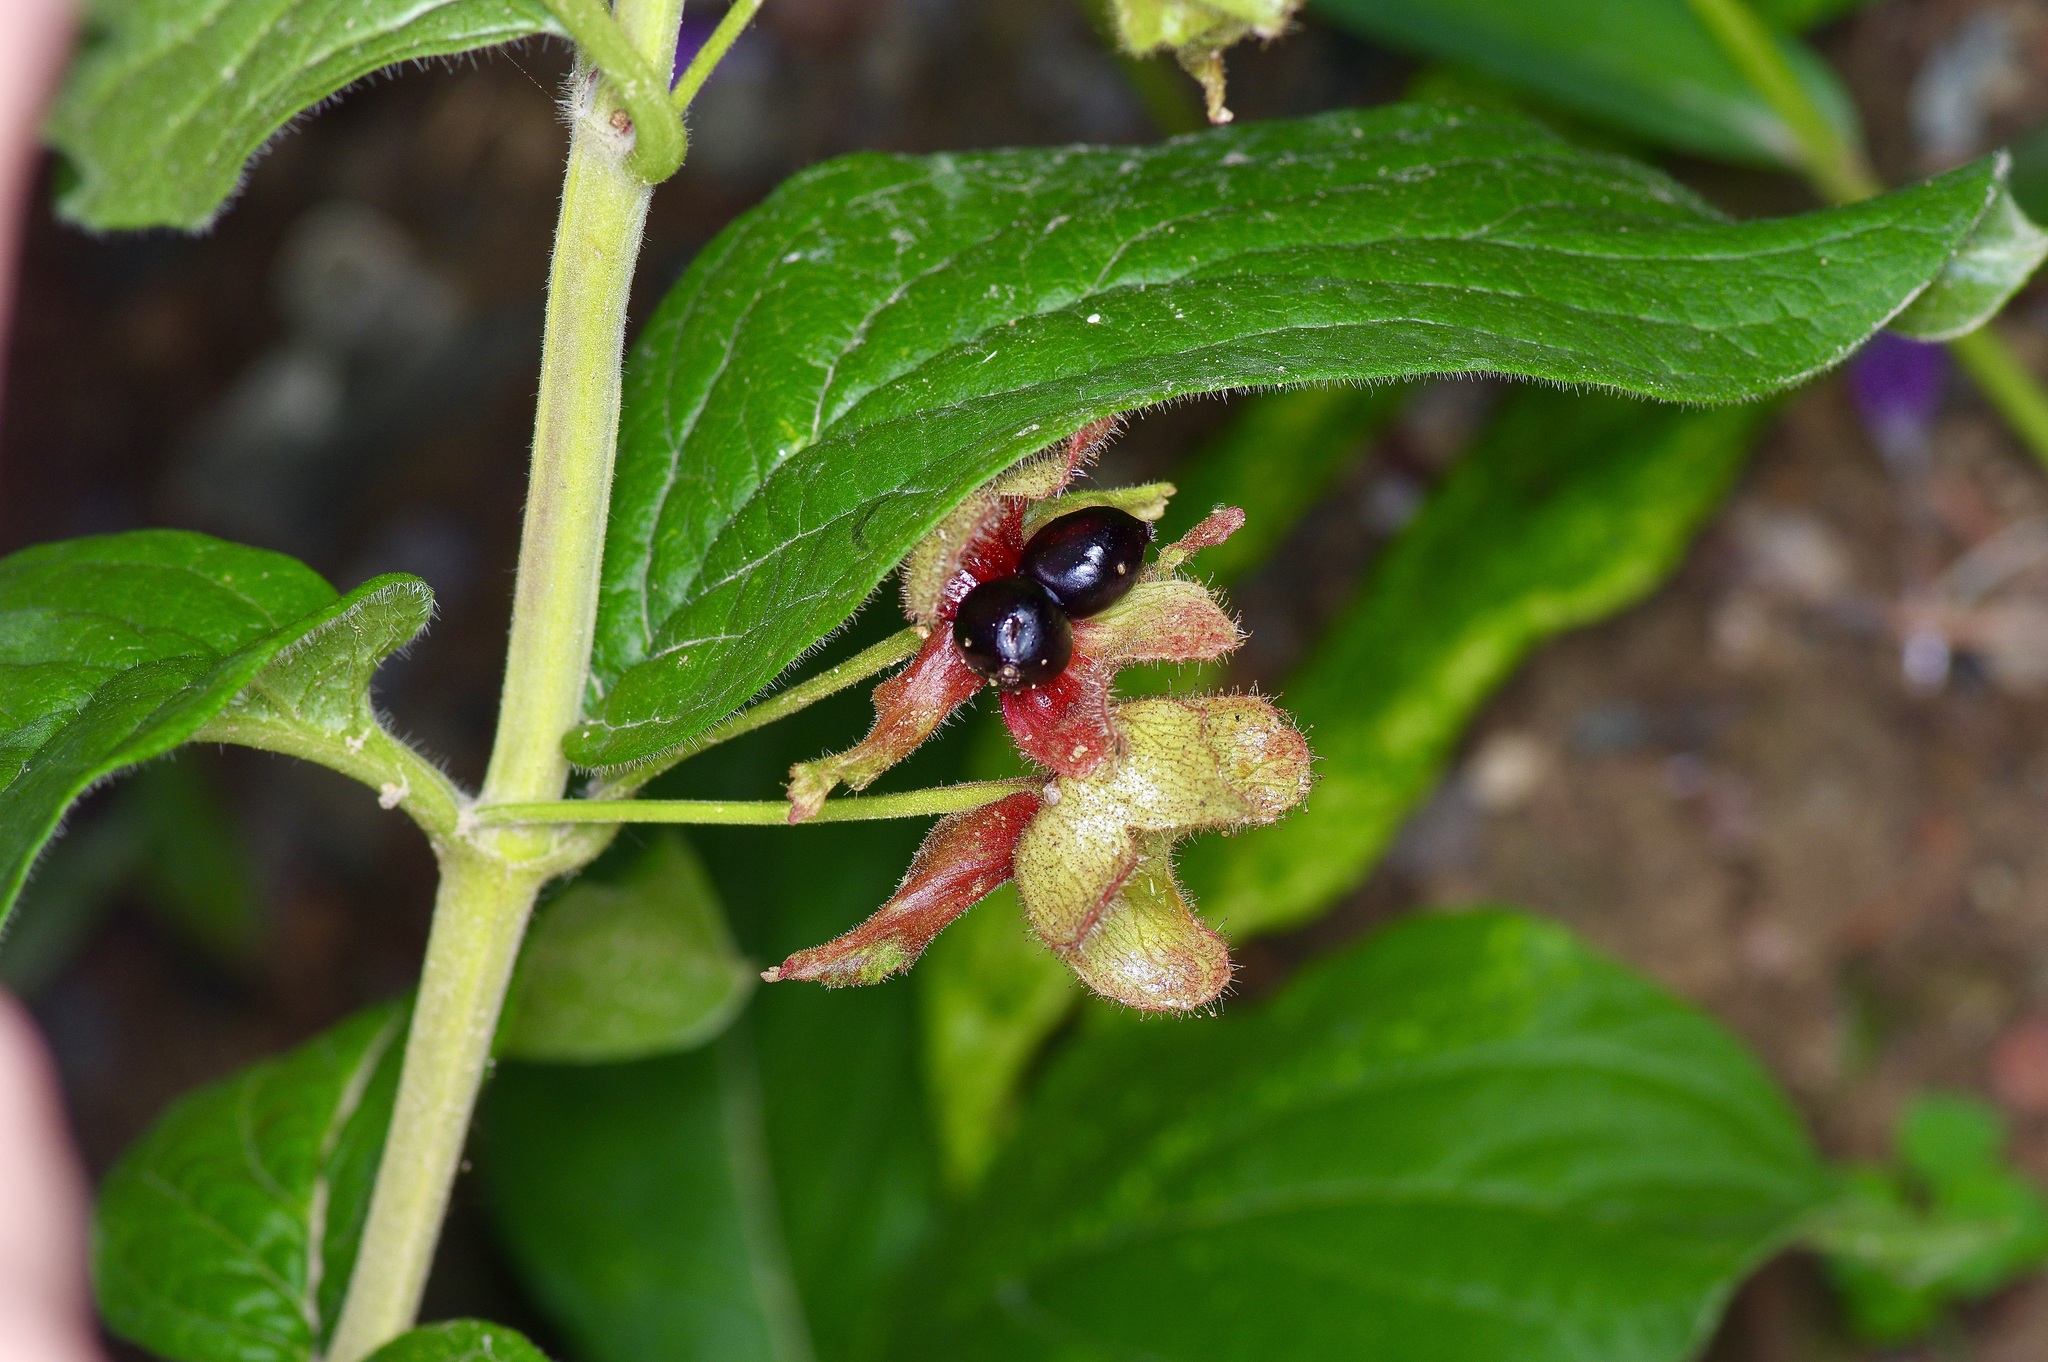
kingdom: Plantae
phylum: Tracheophyta
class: Magnoliopsida
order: Dipsacales
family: Caprifoliaceae
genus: Lonicera
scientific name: Lonicera involucrata
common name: Californian honeysuckle
